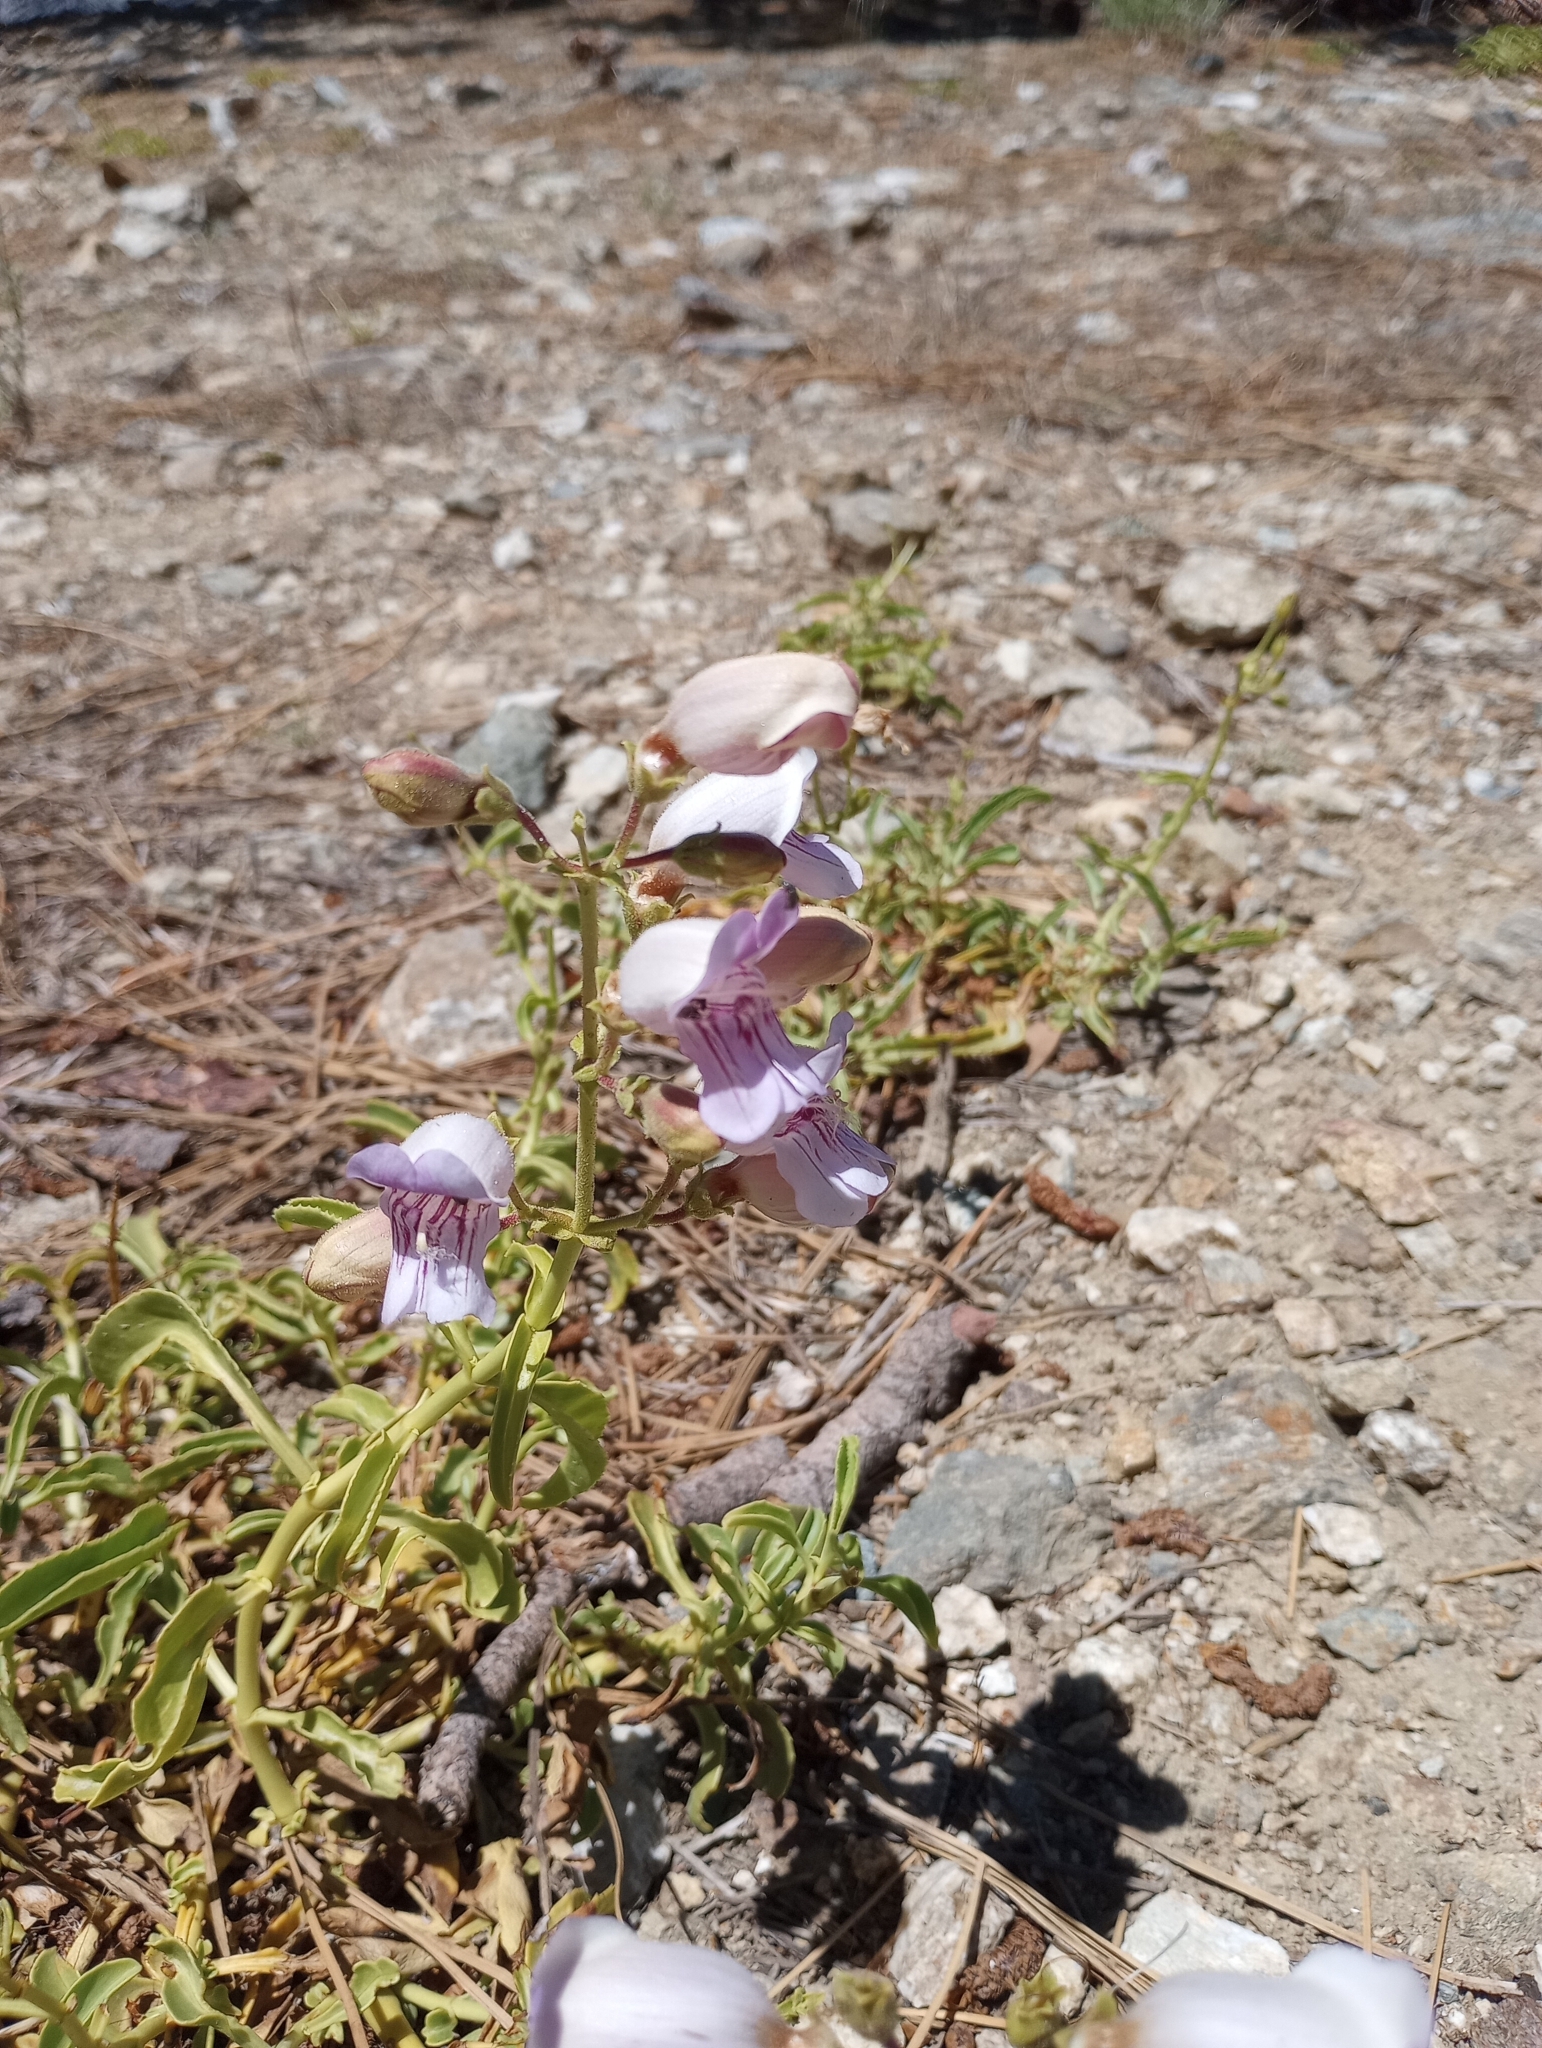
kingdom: Plantae
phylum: Tracheophyta
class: Magnoliopsida
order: Lamiales
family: Plantaginaceae
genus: Penstemon
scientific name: Penstemon grinnellii
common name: Grinnell's beardtongue
